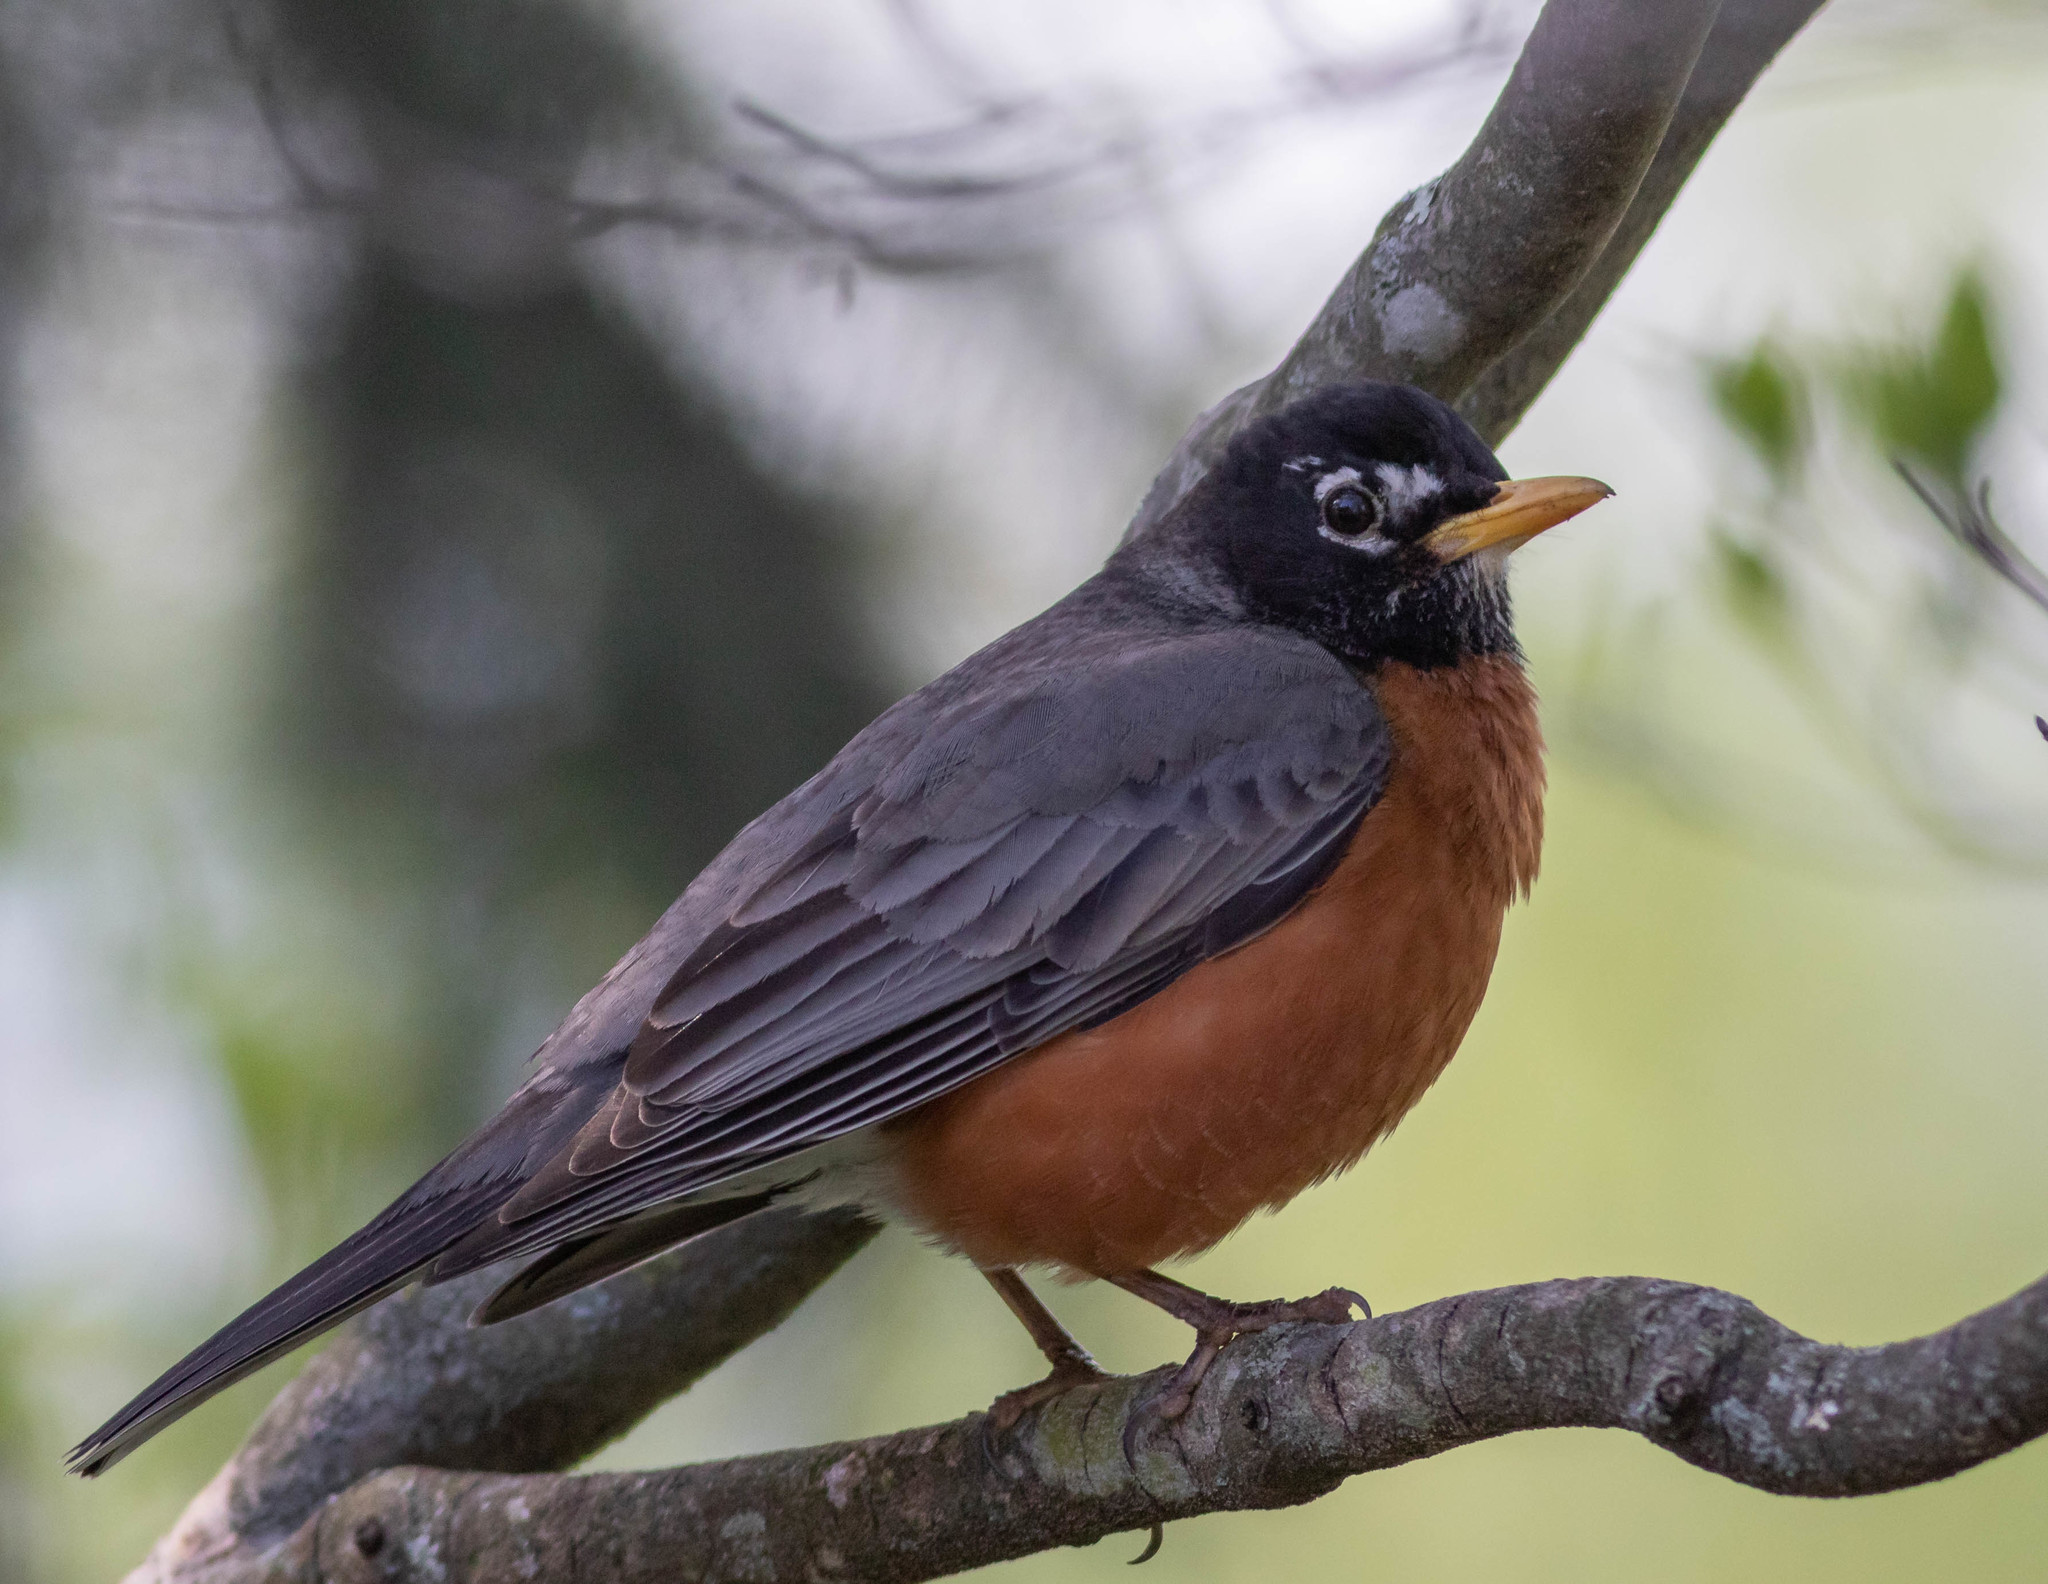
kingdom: Animalia
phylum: Chordata
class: Aves
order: Passeriformes
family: Turdidae
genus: Turdus
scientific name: Turdus migratorius
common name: American robin
